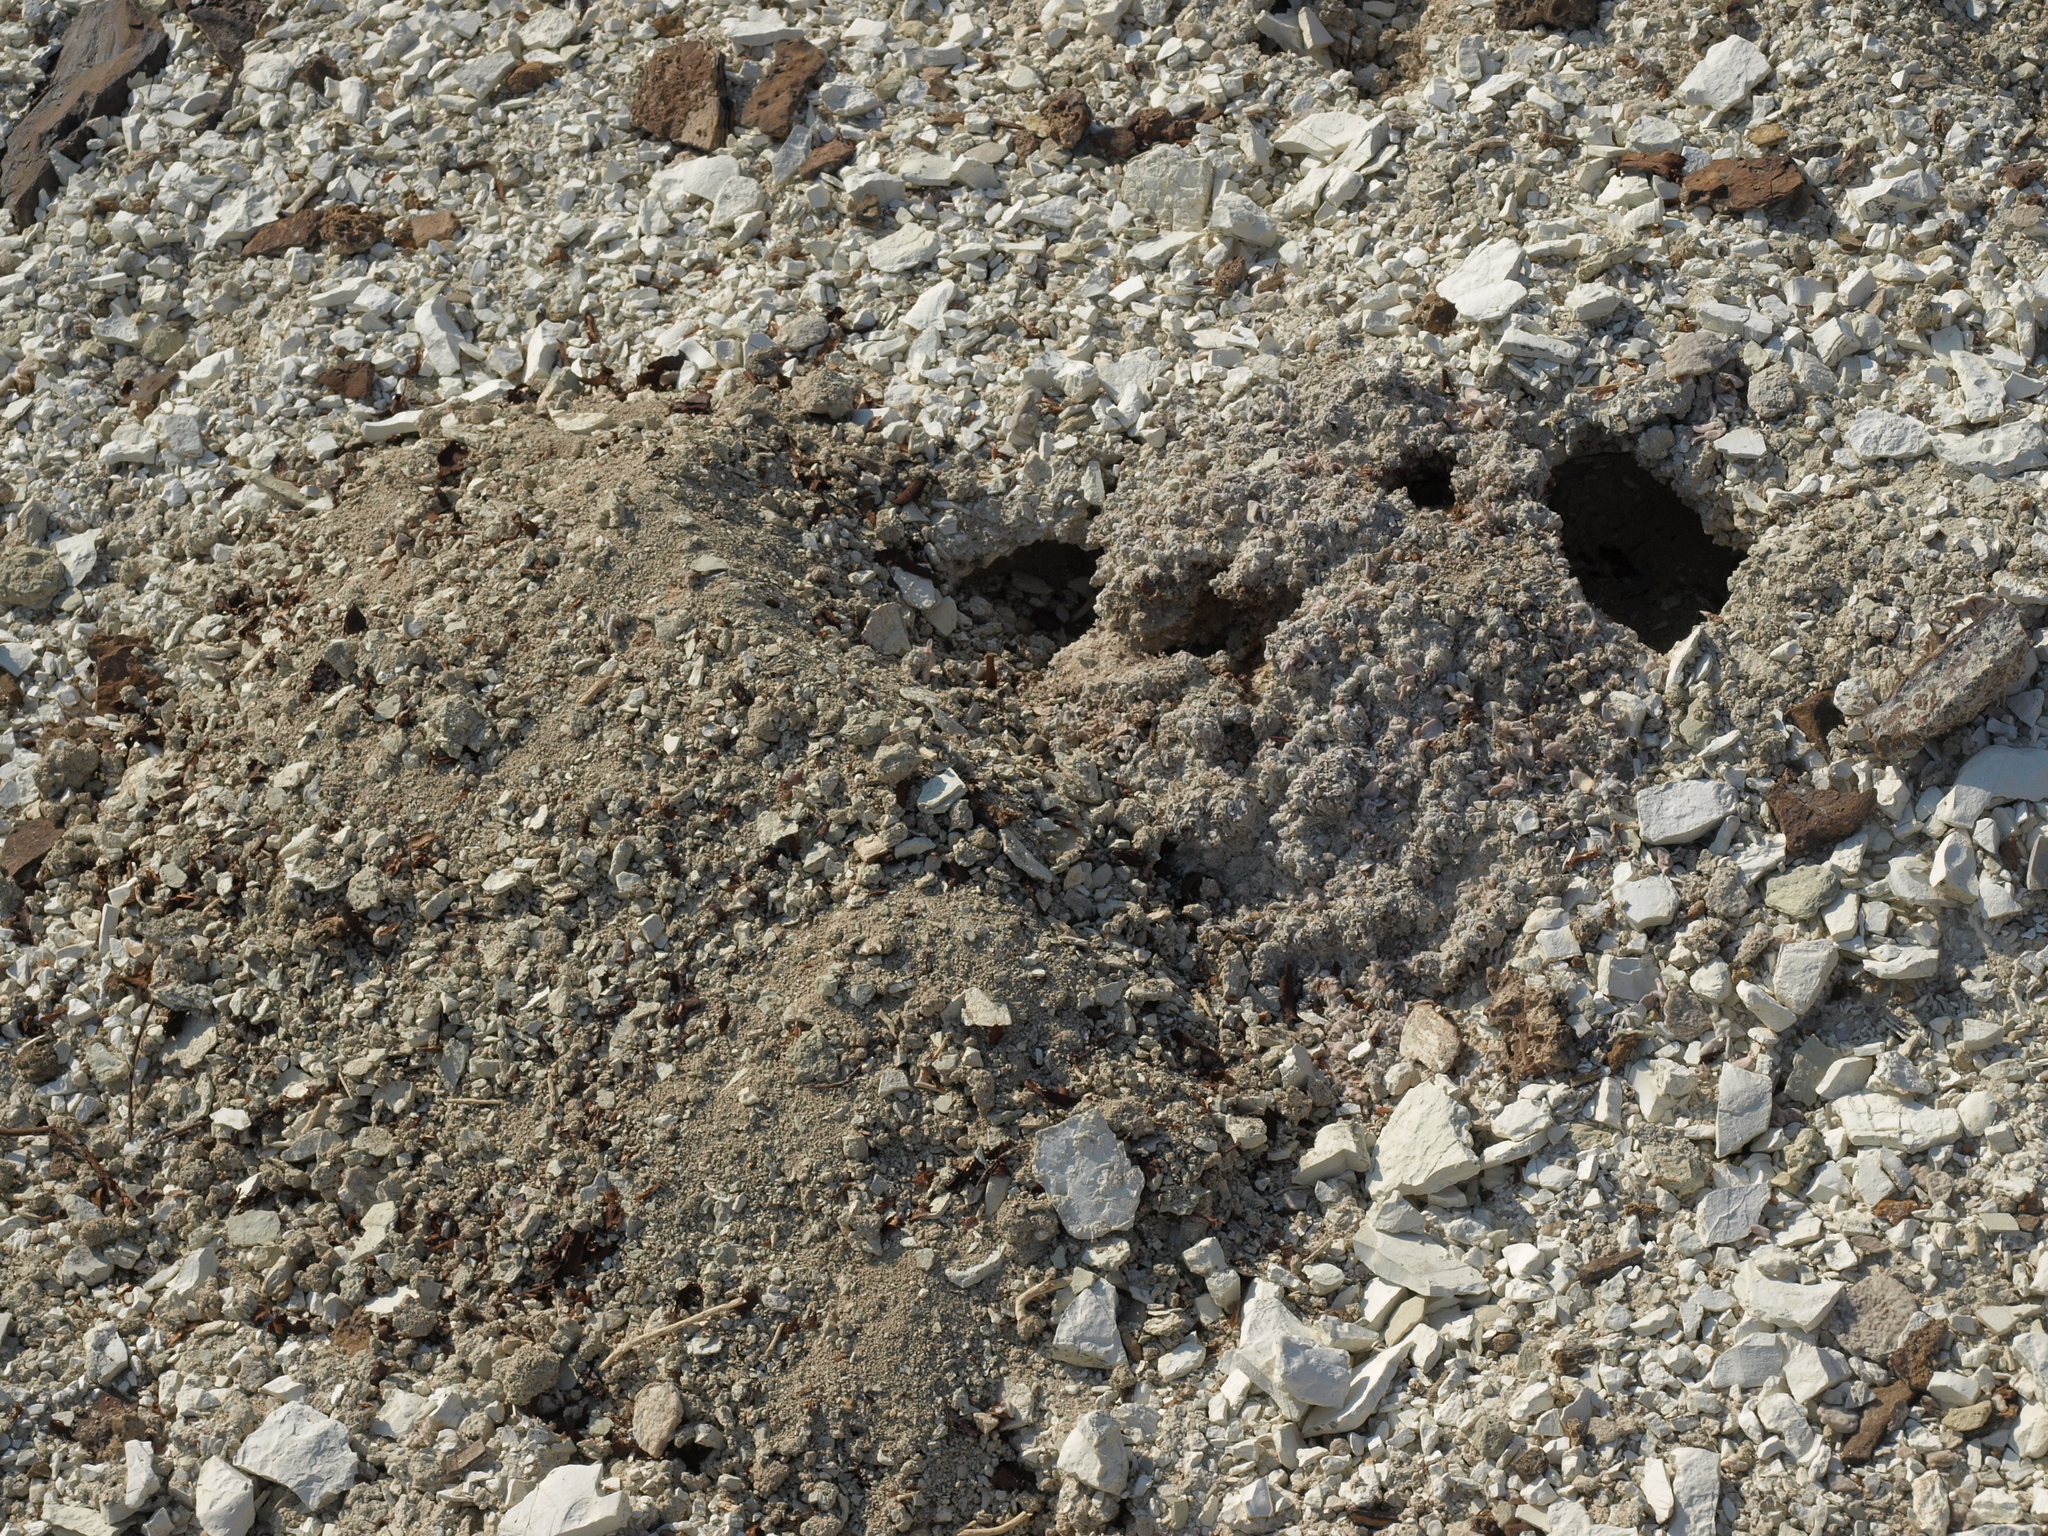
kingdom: Plantae
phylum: Tracheophyta
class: Magnoliopsida
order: Caryophyllales
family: Polygonaceae
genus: Eriogonum
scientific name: Eriogonum tiehmii
